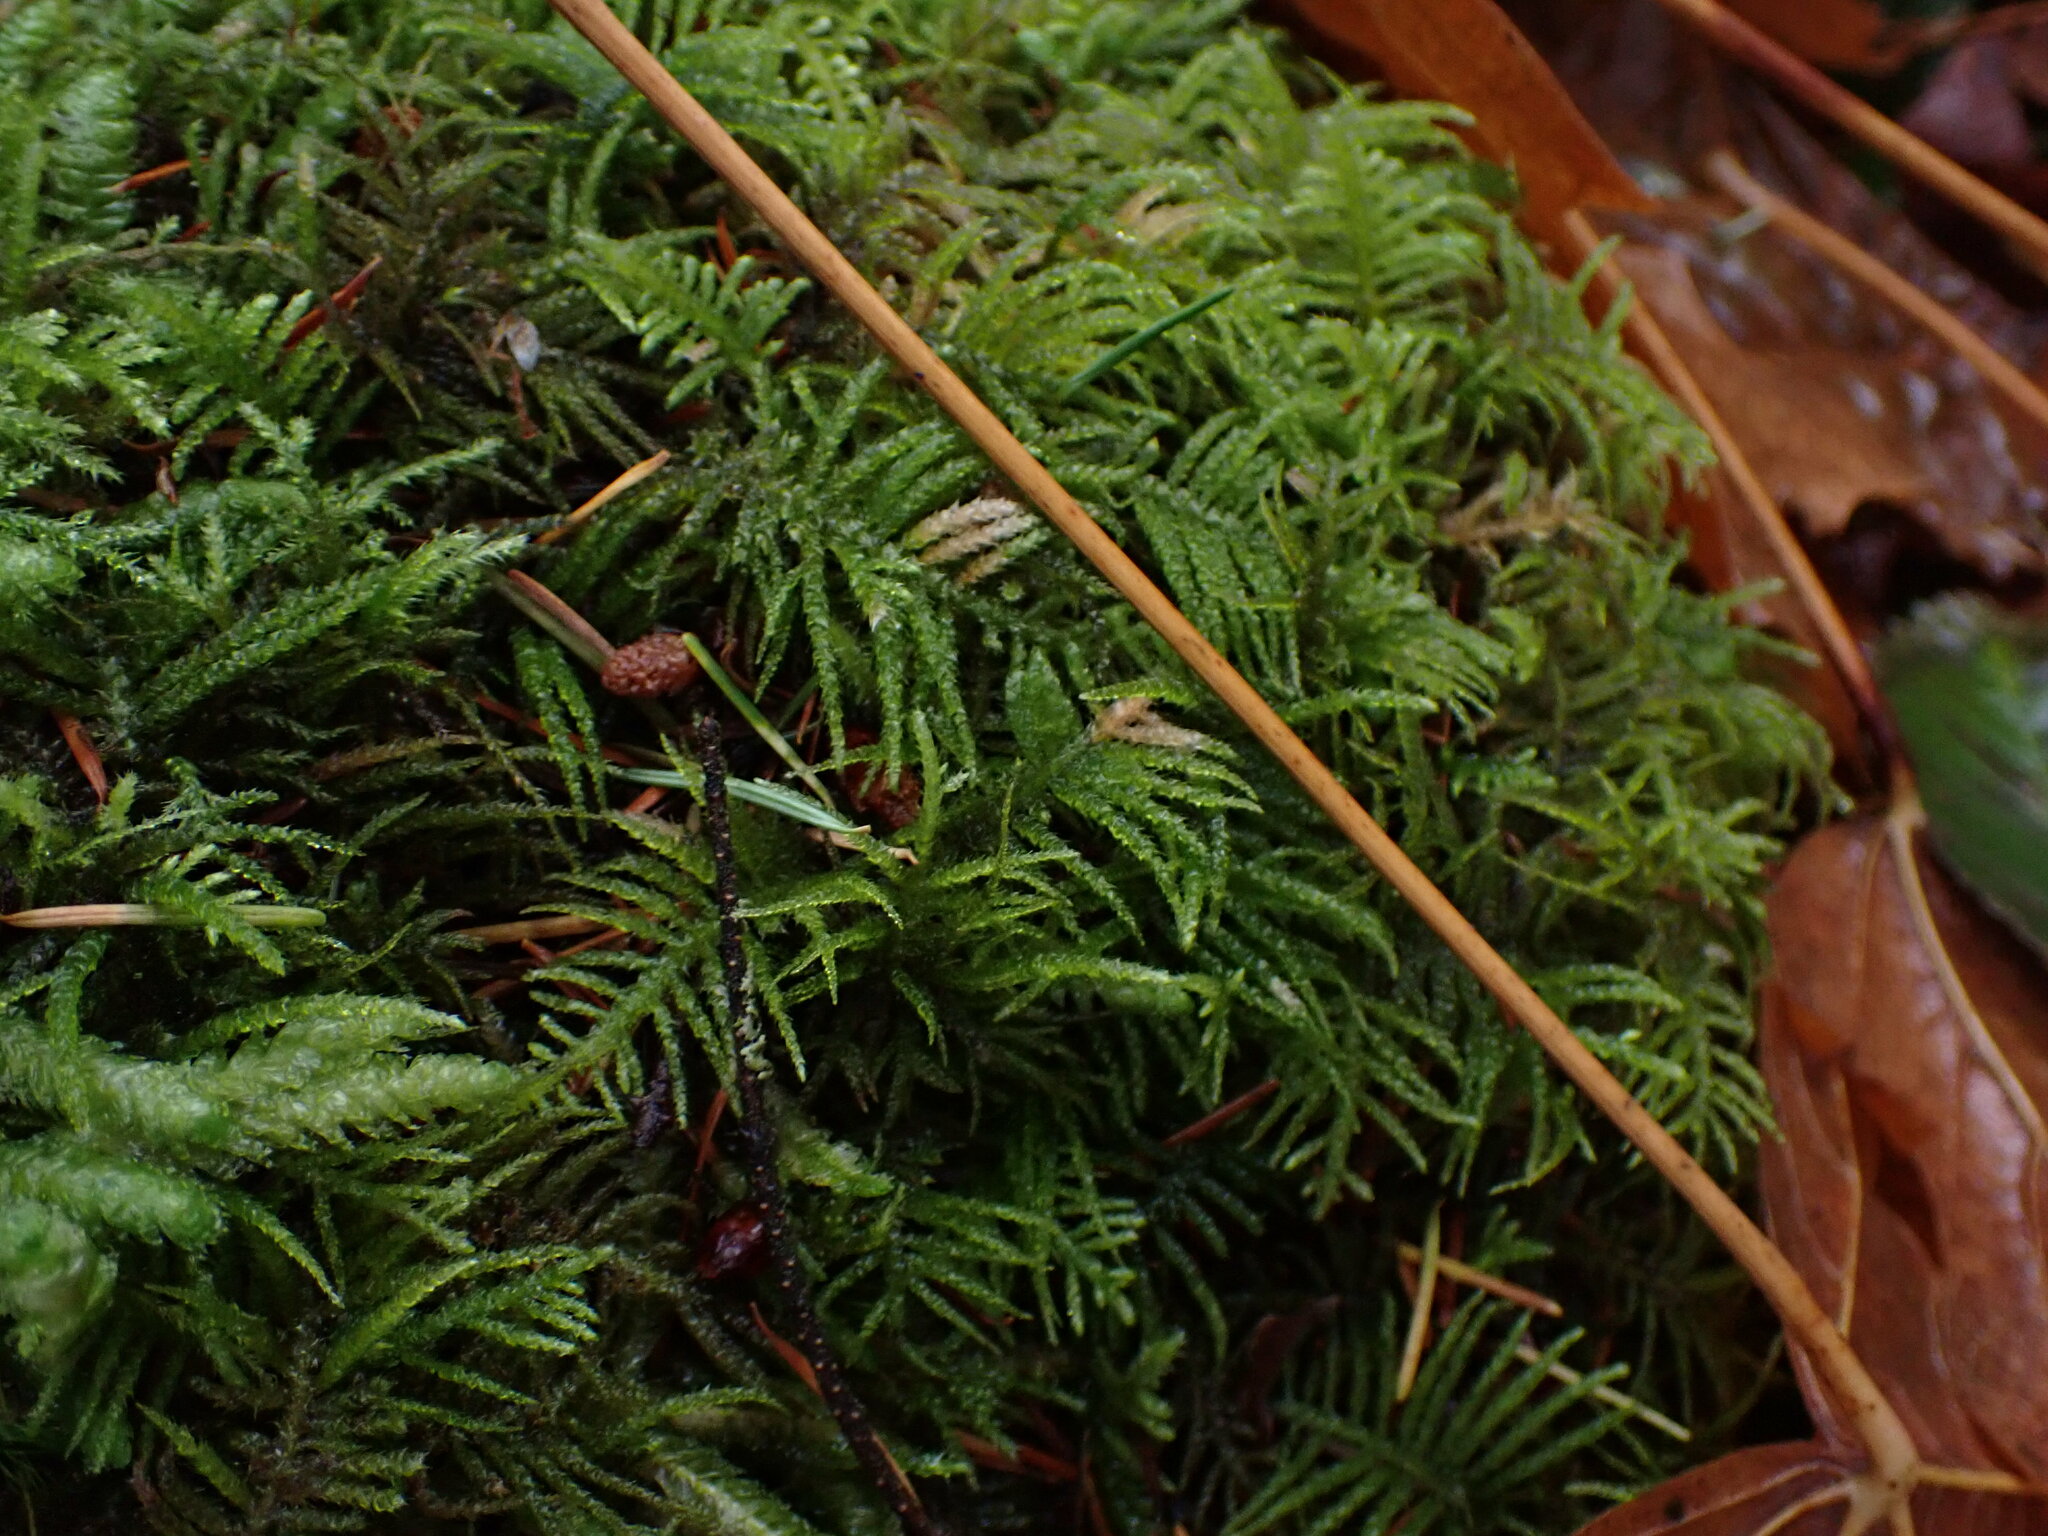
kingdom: Plantae
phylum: Bryophyta
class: Bryopsida
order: Hypnales
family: Brachytheciaceae
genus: Kindbergia
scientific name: Kindbergia oregana
